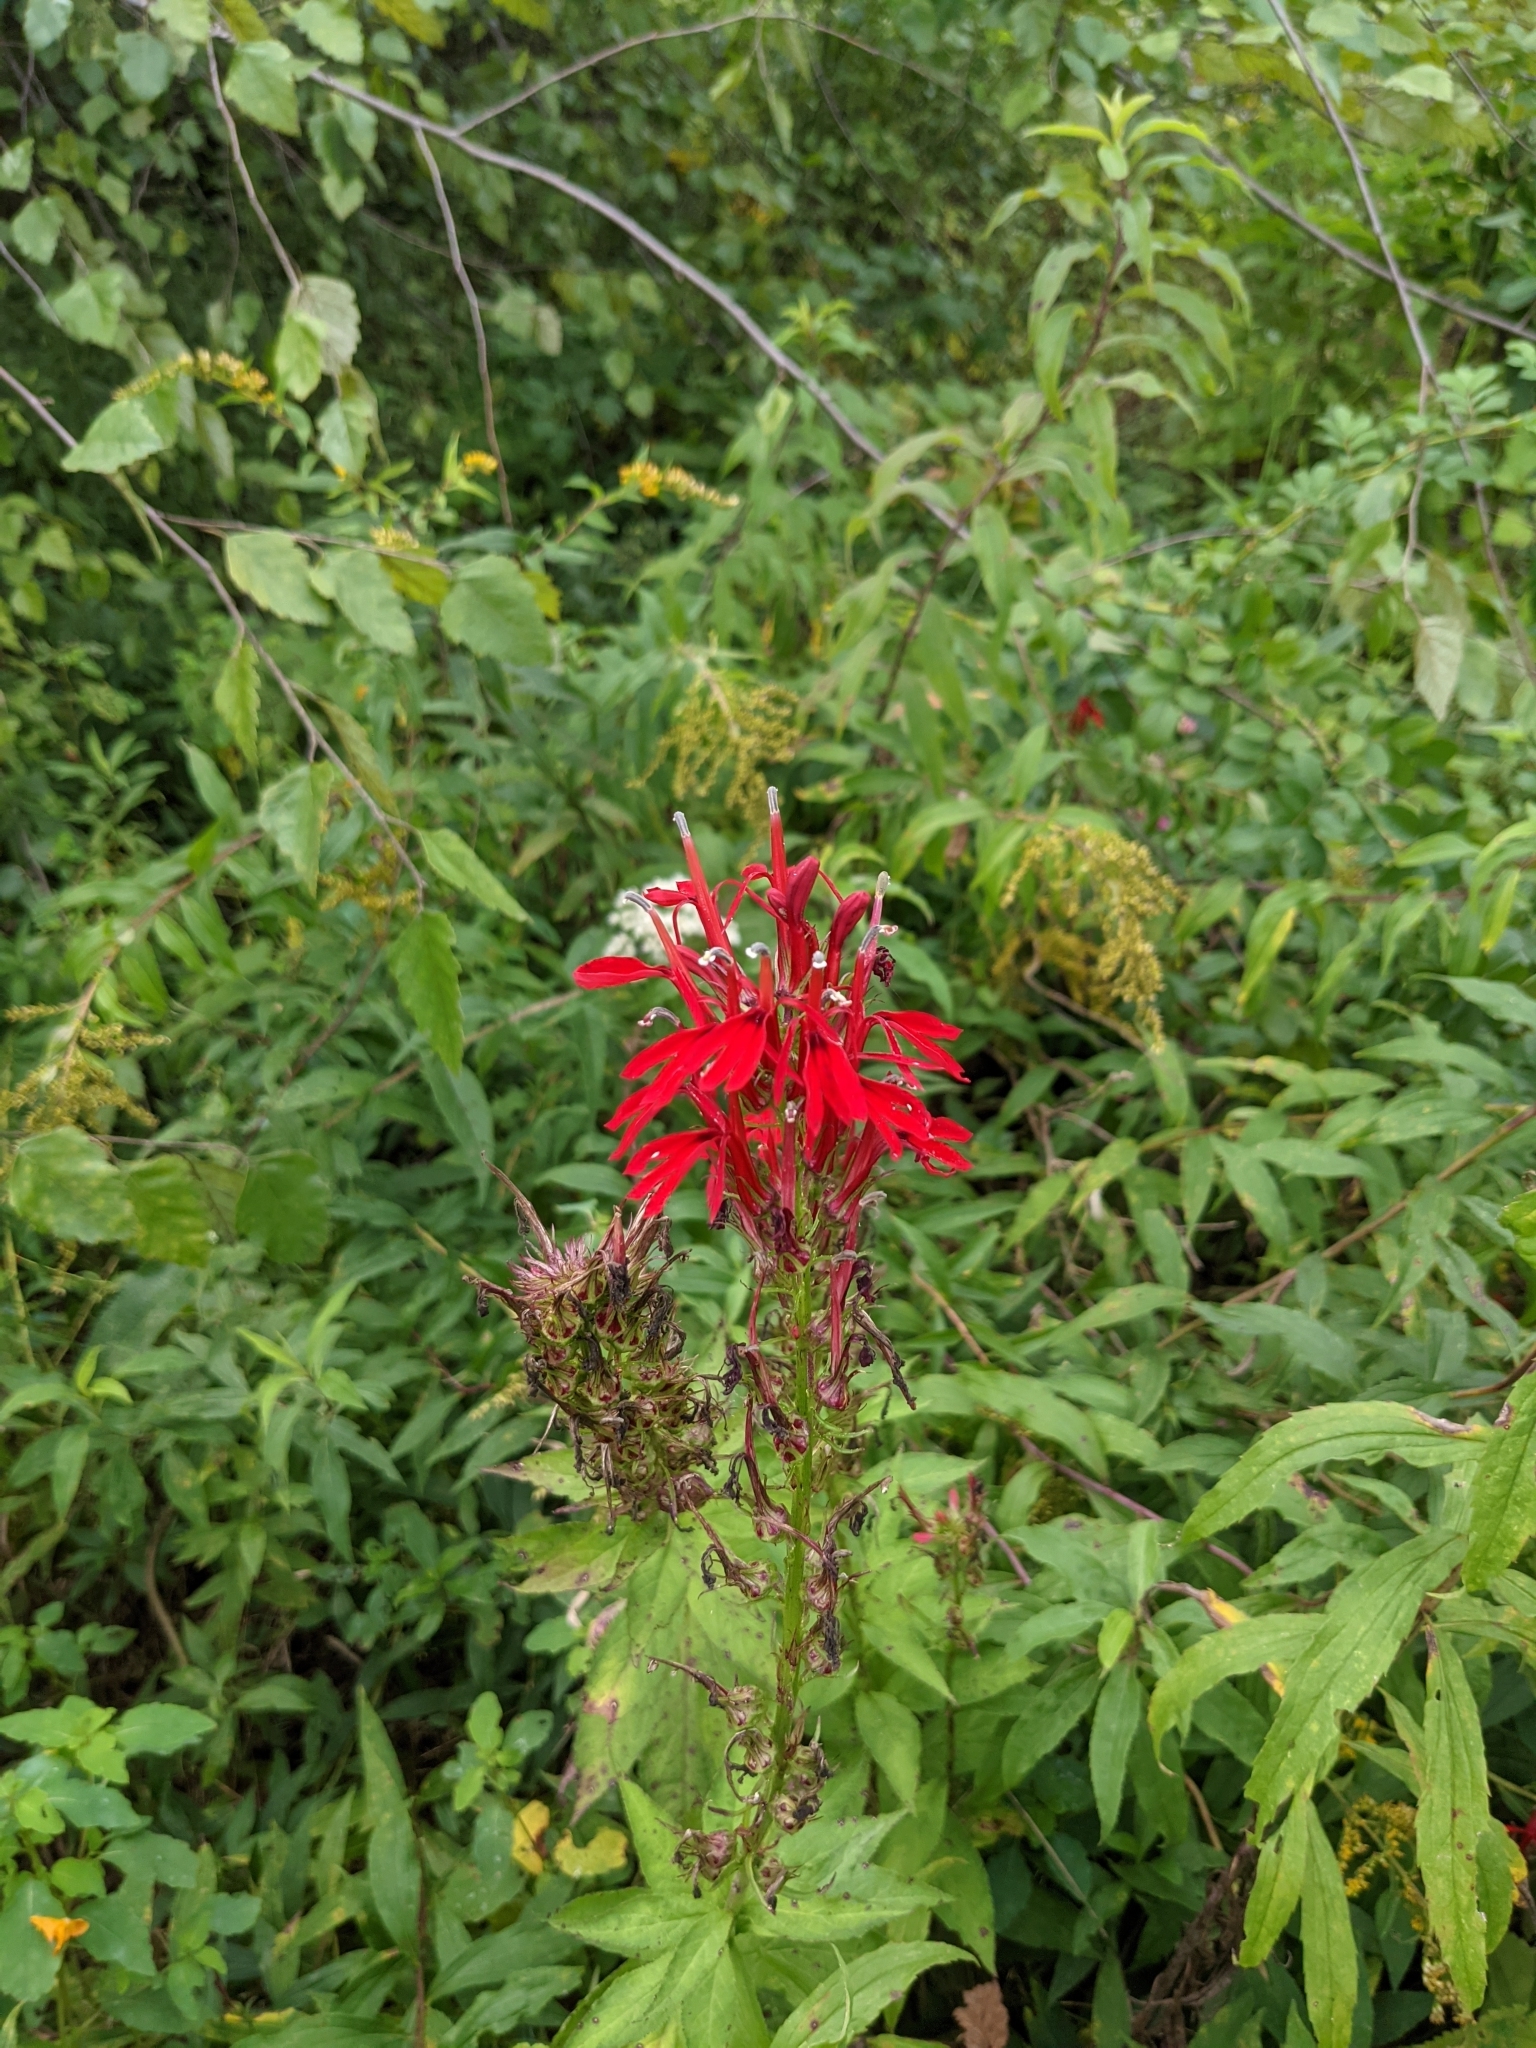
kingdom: Plantae
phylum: Tracheophyta
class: Magnoliopsida
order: Asterales
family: Campanulaceae
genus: Lobelia
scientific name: Lobelia cardinalis
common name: Cardinal flower
